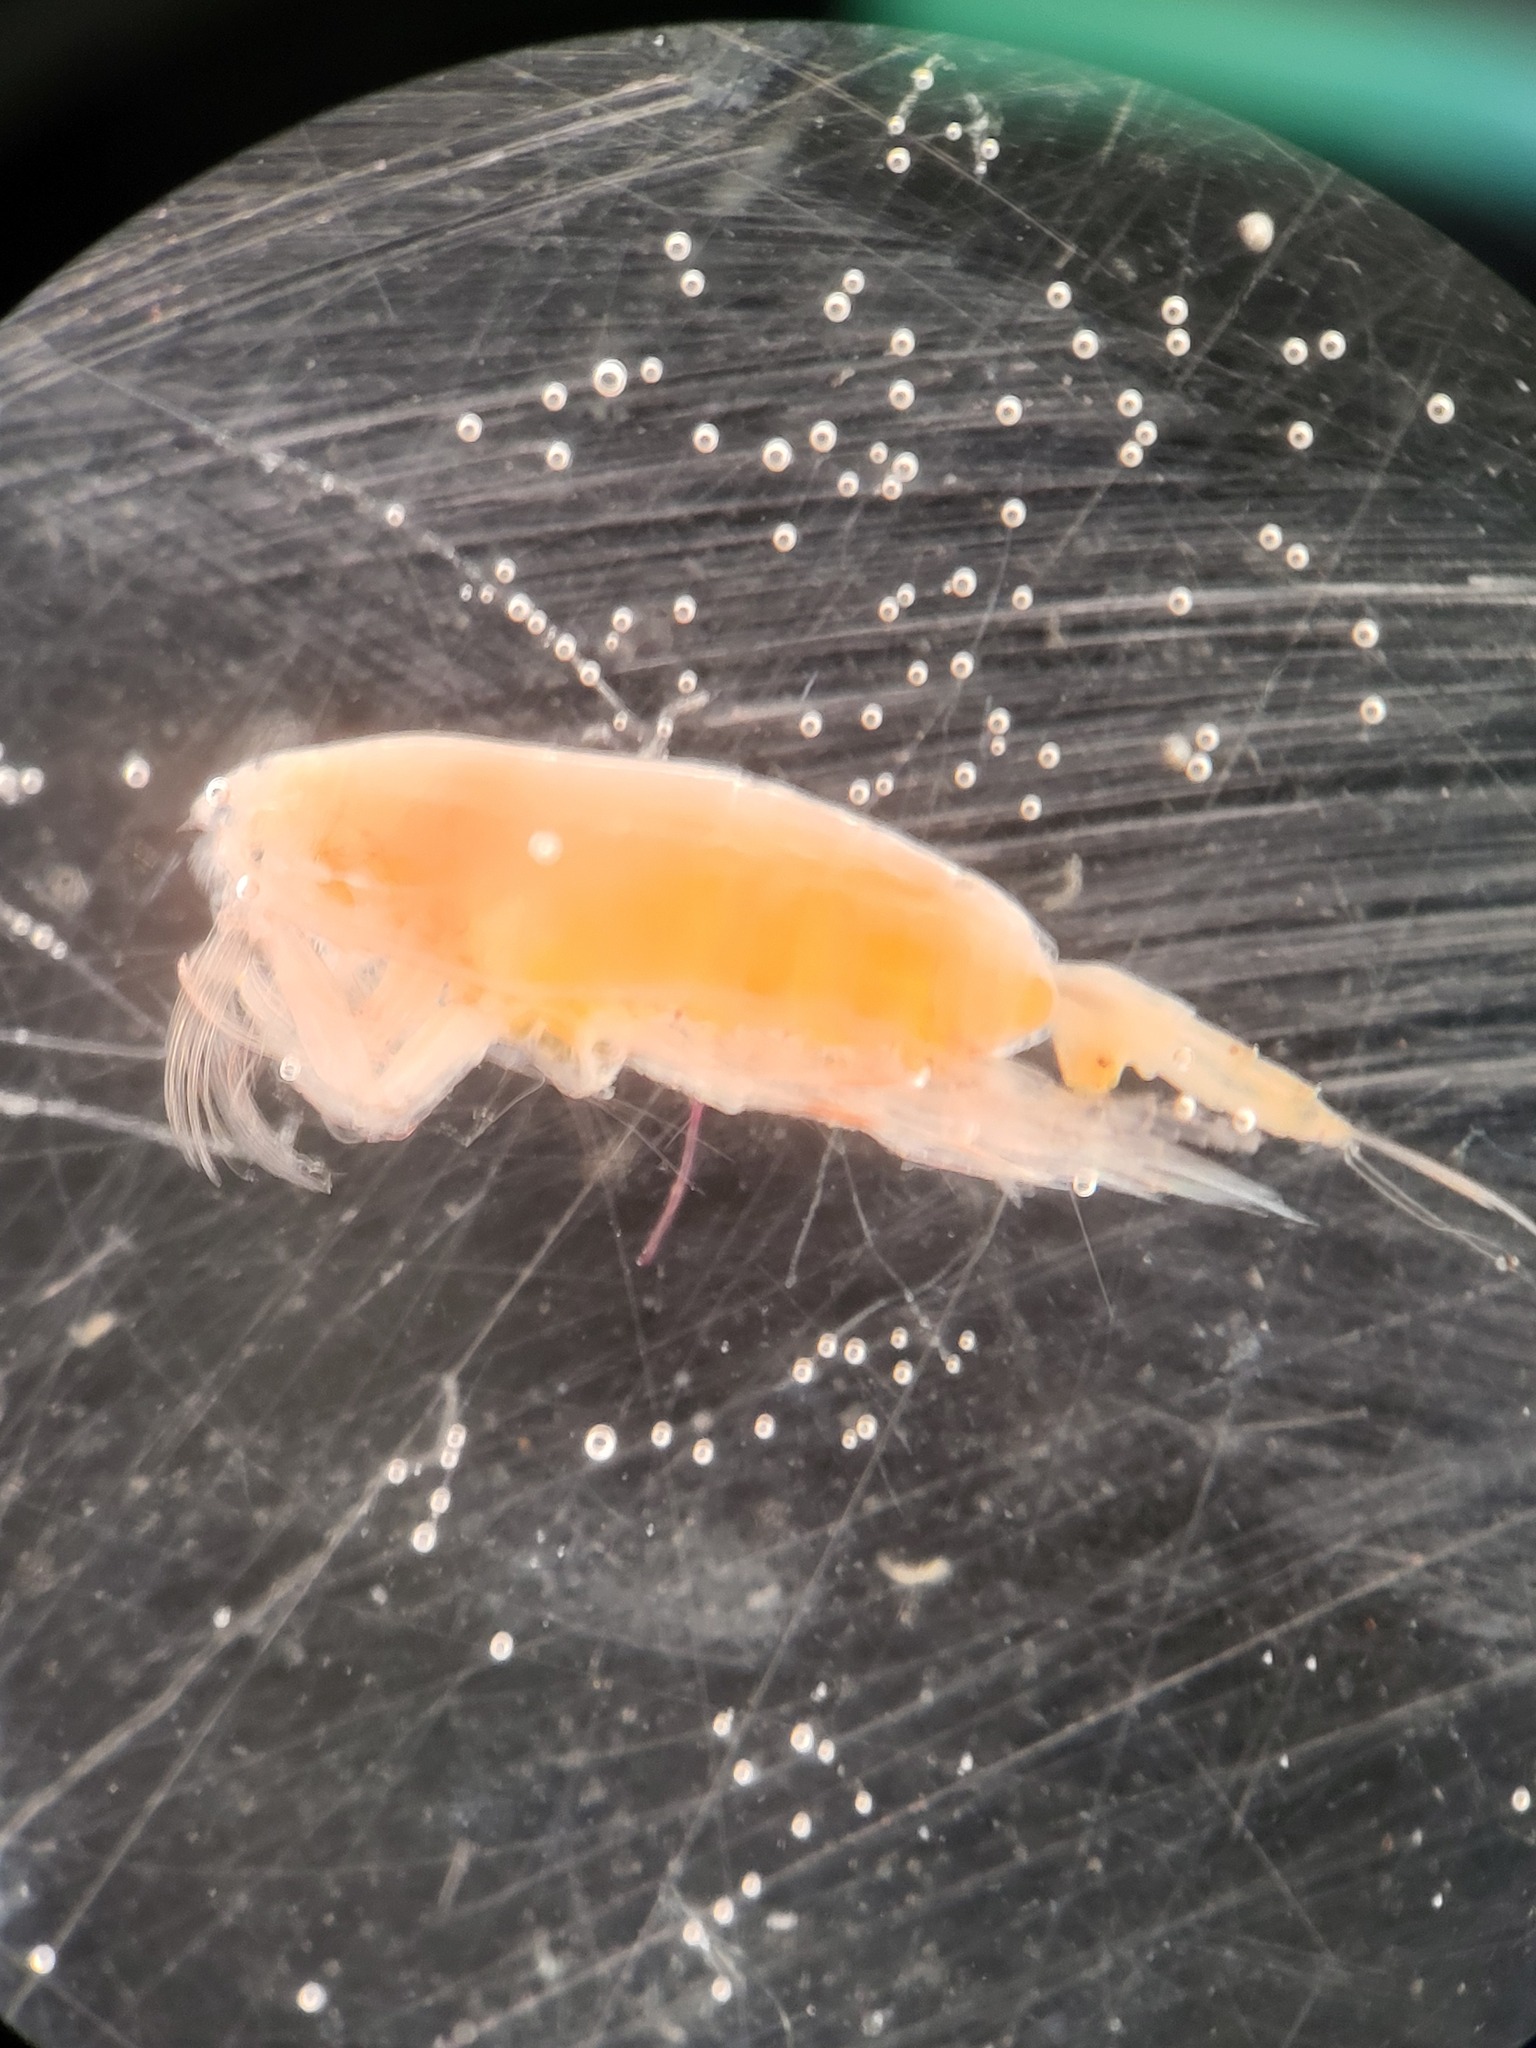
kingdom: Animalia
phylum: Arthropoda
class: Copepoda
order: Calanoida
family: Euchaetidae
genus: Paraeuchaeta
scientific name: Paraeuchaeta glacialis
